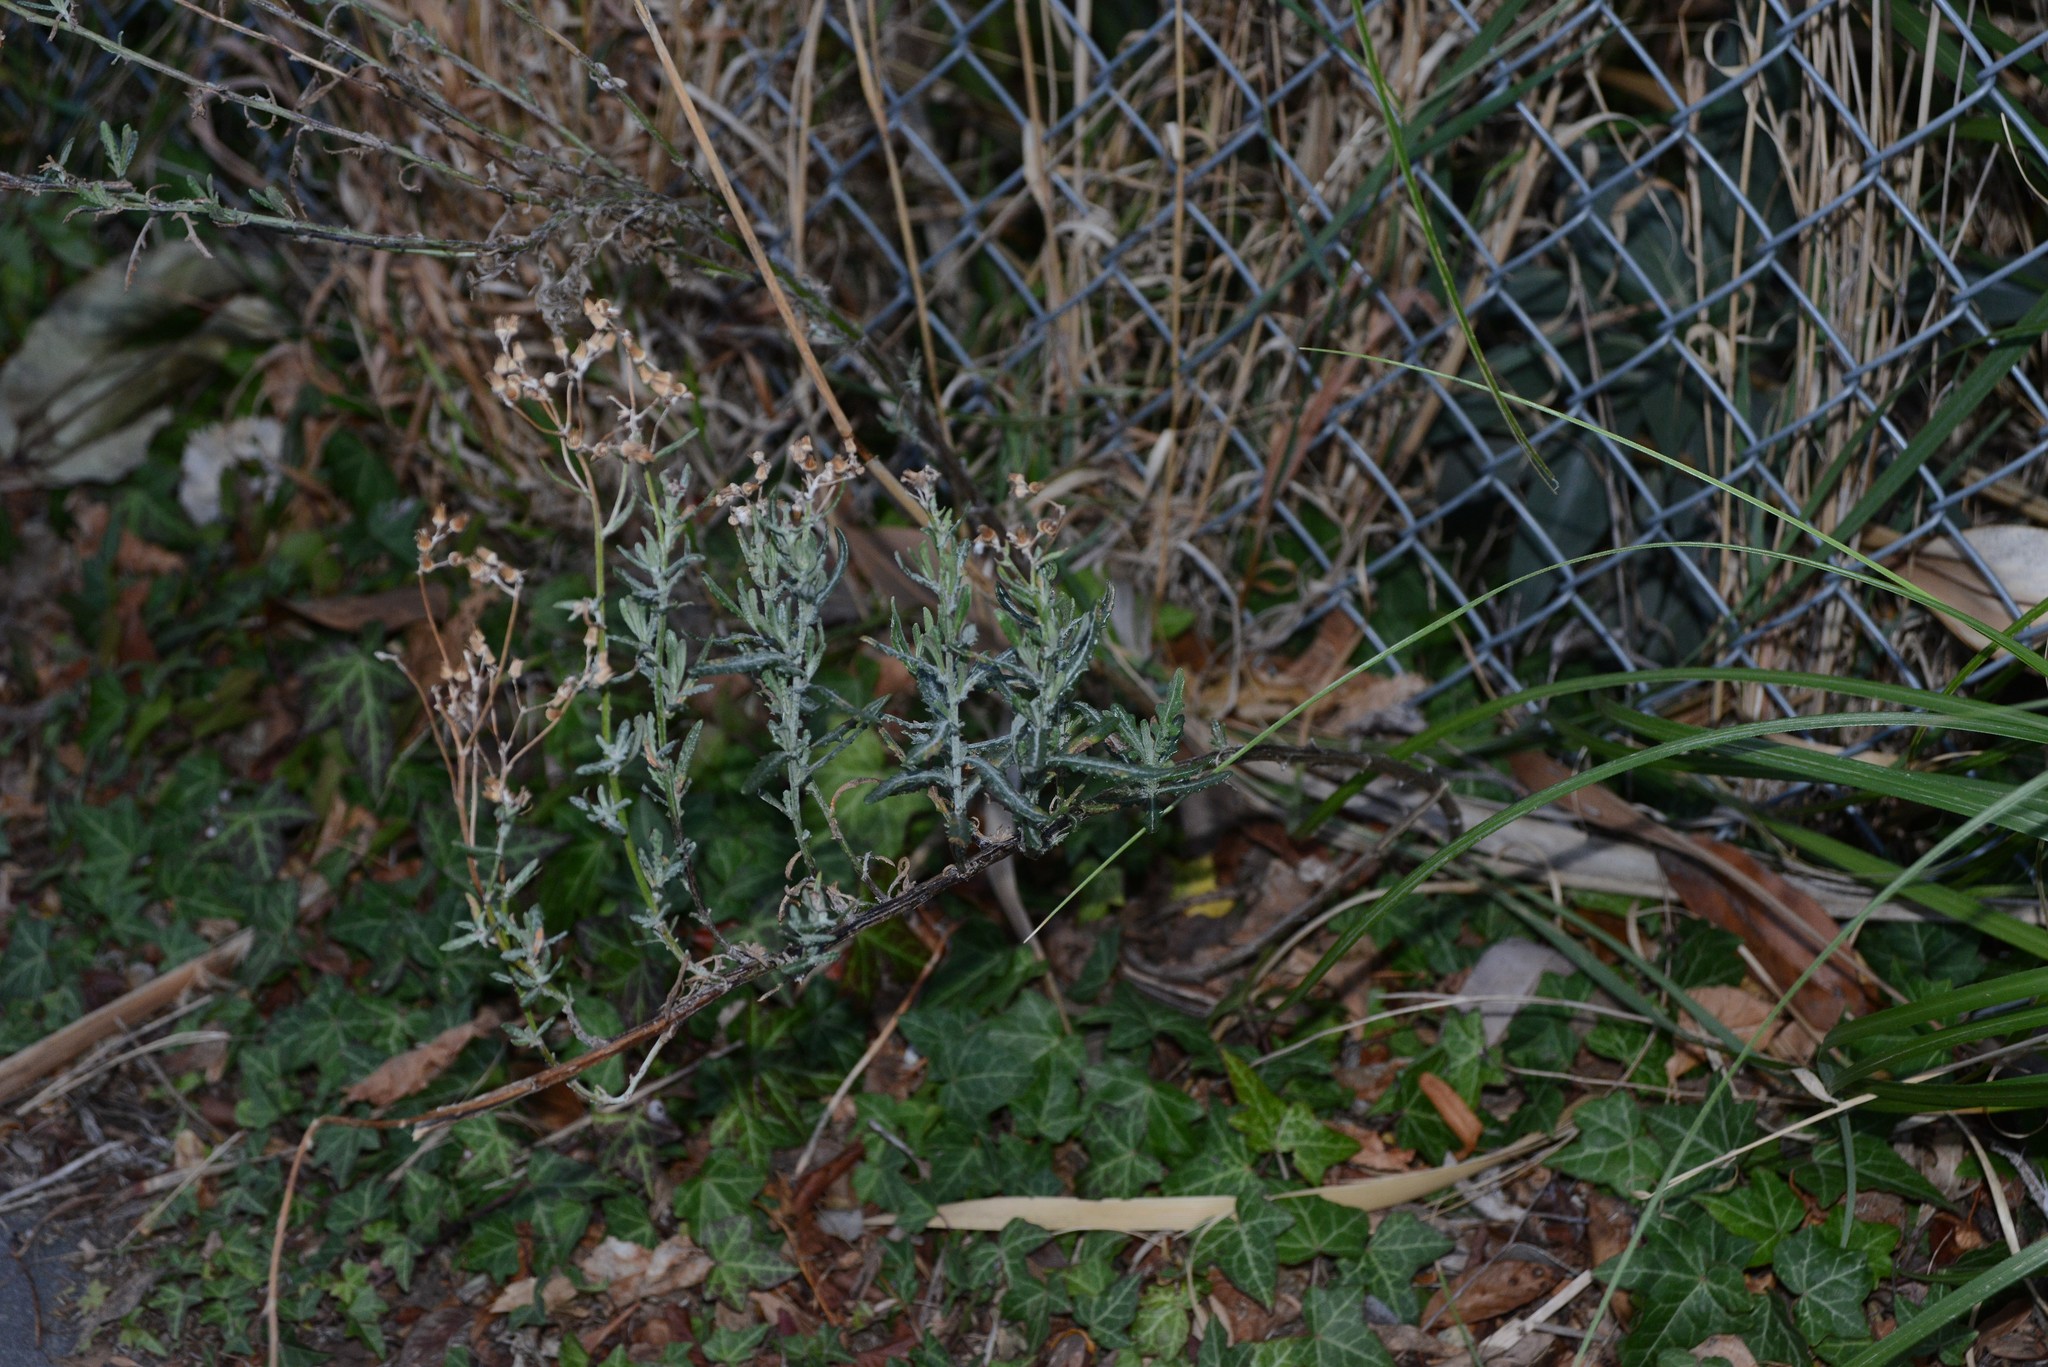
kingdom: Plantae
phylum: Tracheophyta
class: Magnoliopsida
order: Asterales
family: Asteraceae
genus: Senecio
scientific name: Senecio glomeratus
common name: Cutleaf burnweed
